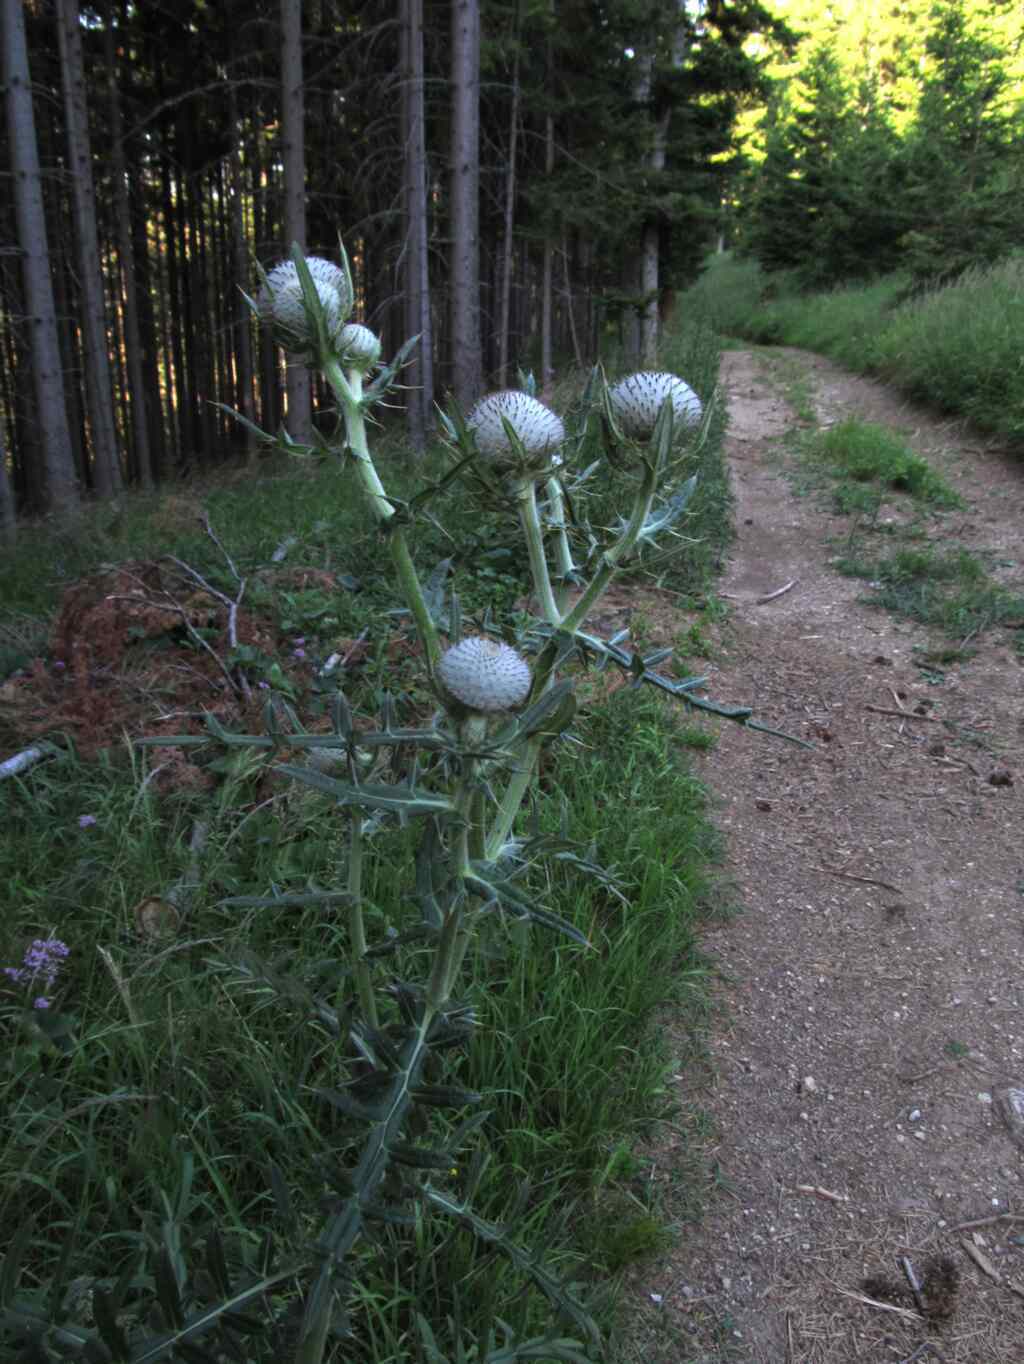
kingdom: Plantae
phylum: Tracheophyta
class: Magnoliopsida
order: Asterales
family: Asteraceae
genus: Lophiolepis
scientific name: Lophiolepis eriophora
